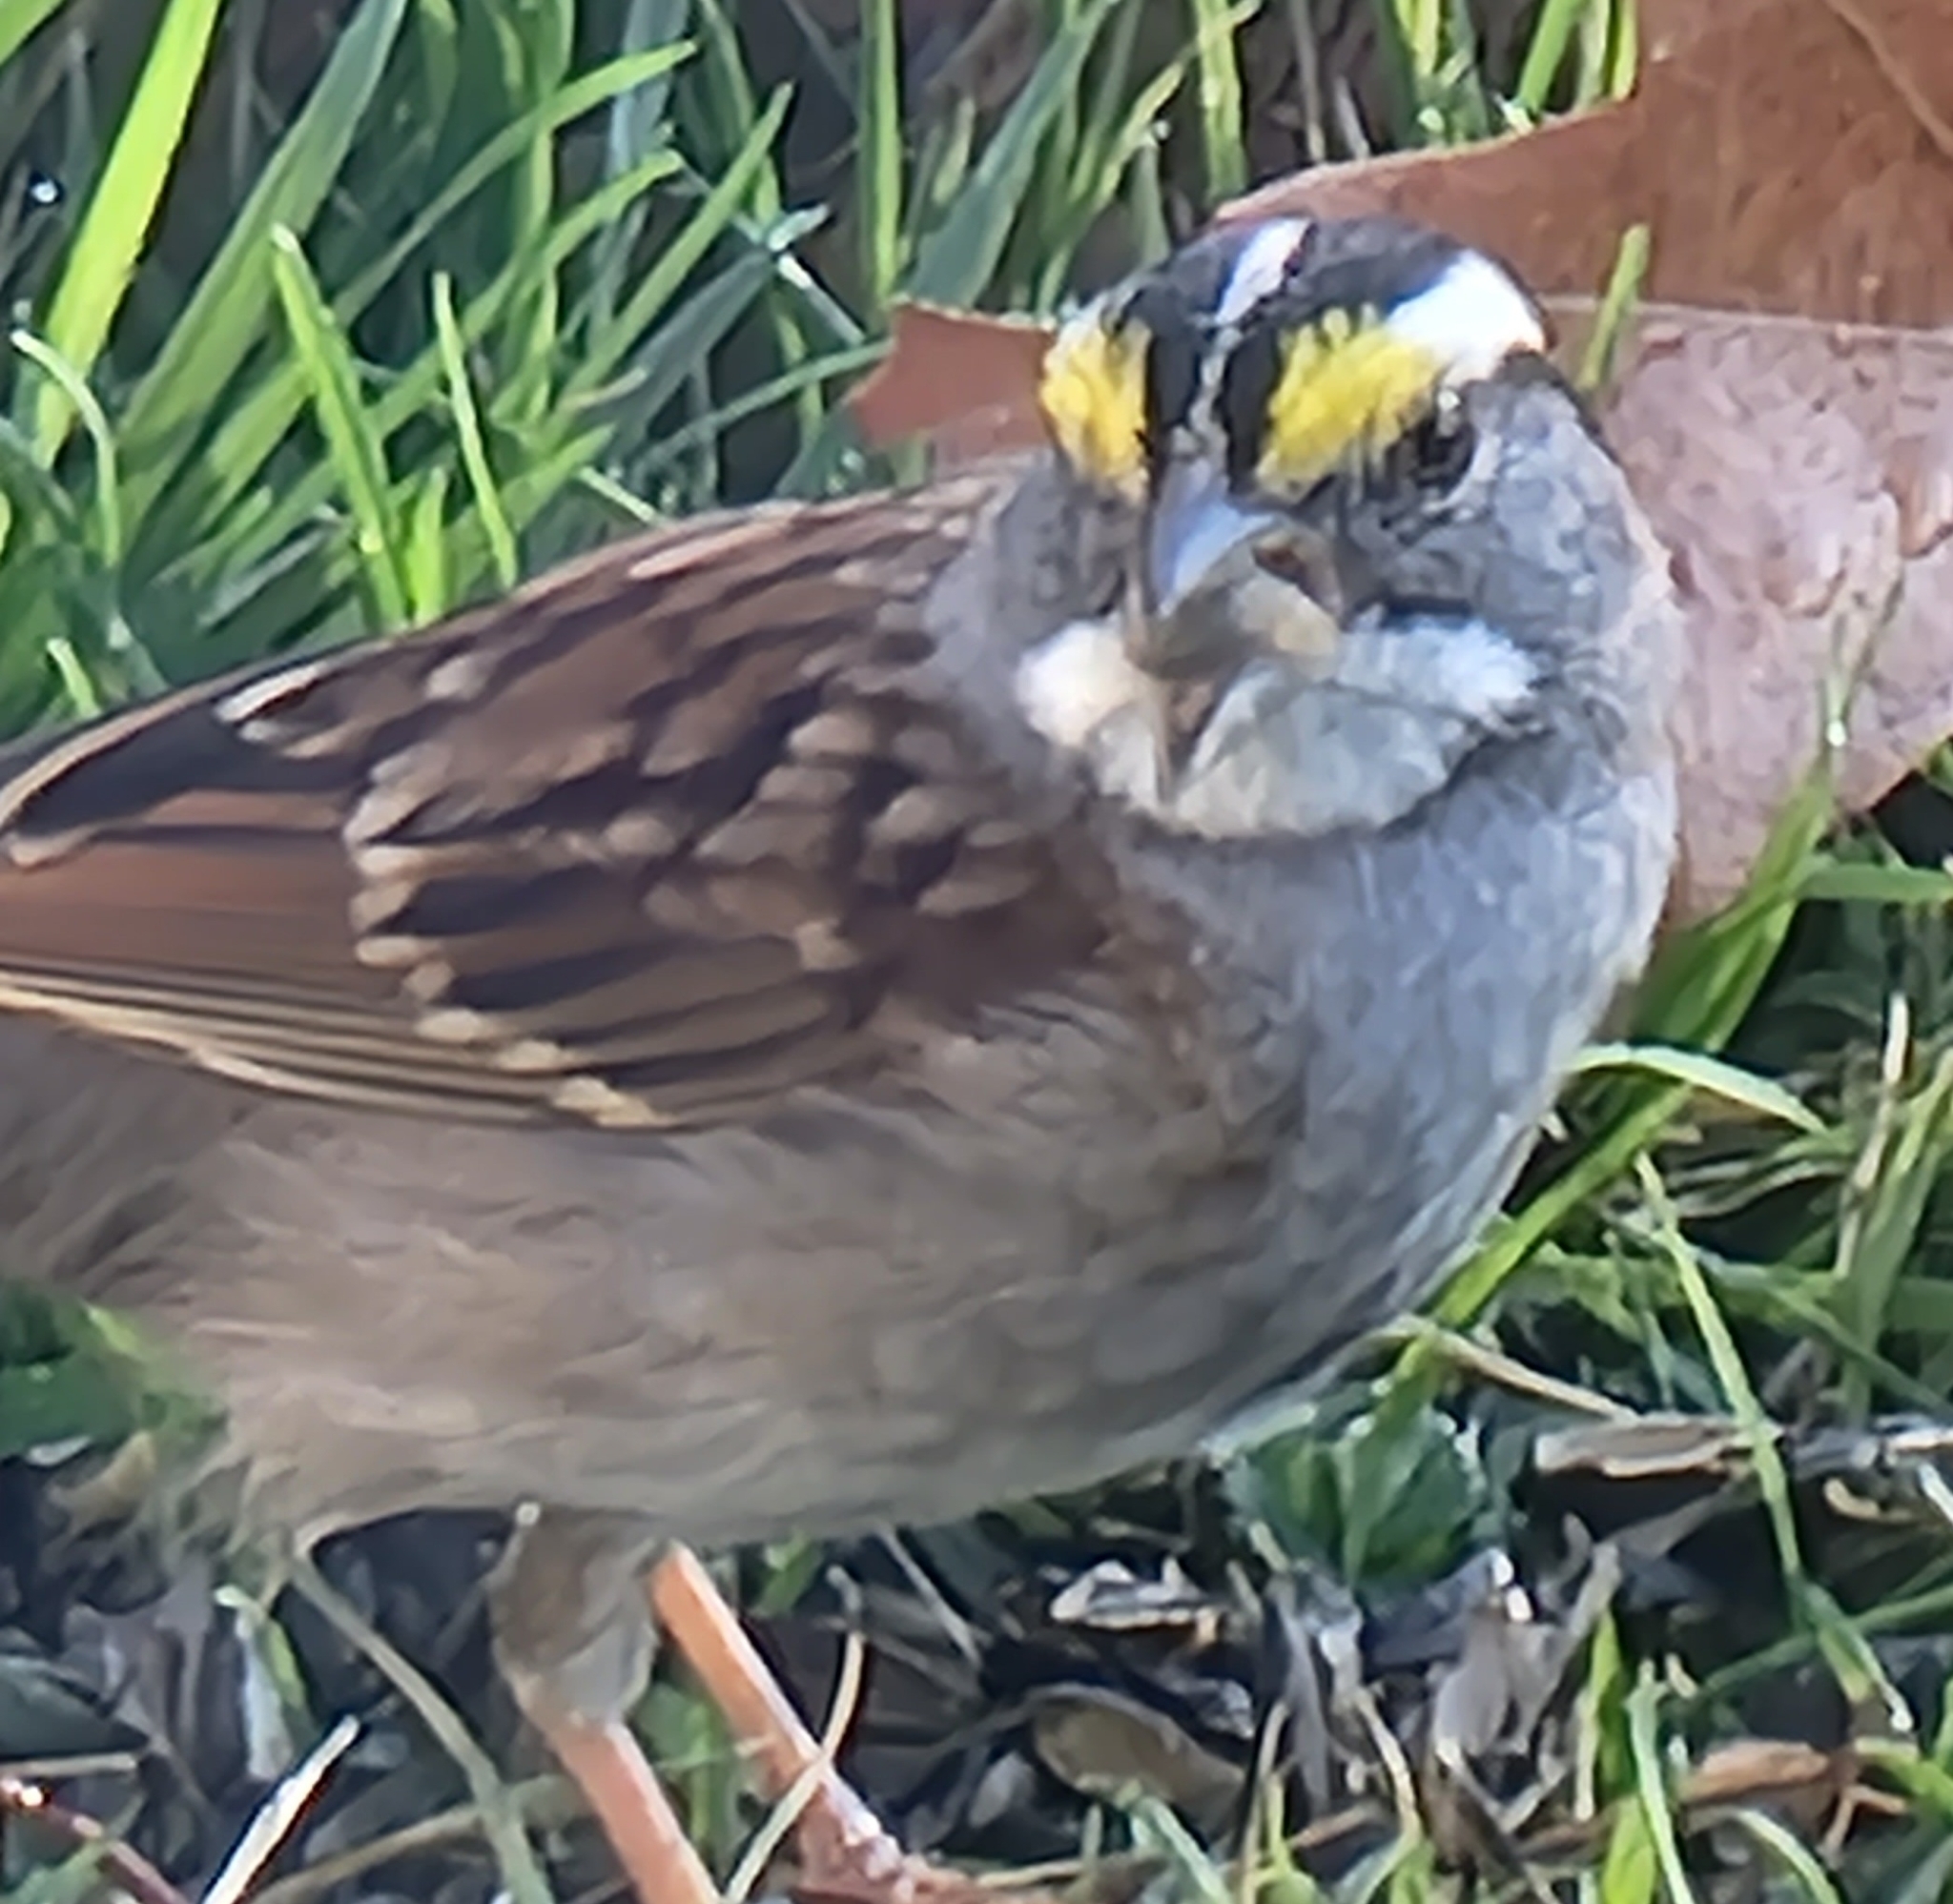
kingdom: Animalia
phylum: Chordata
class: Aves
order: Passeriformes
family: Passerellidae
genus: Zonotrichia
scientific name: Zonotrichia albicollis
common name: White-throated sparrow
